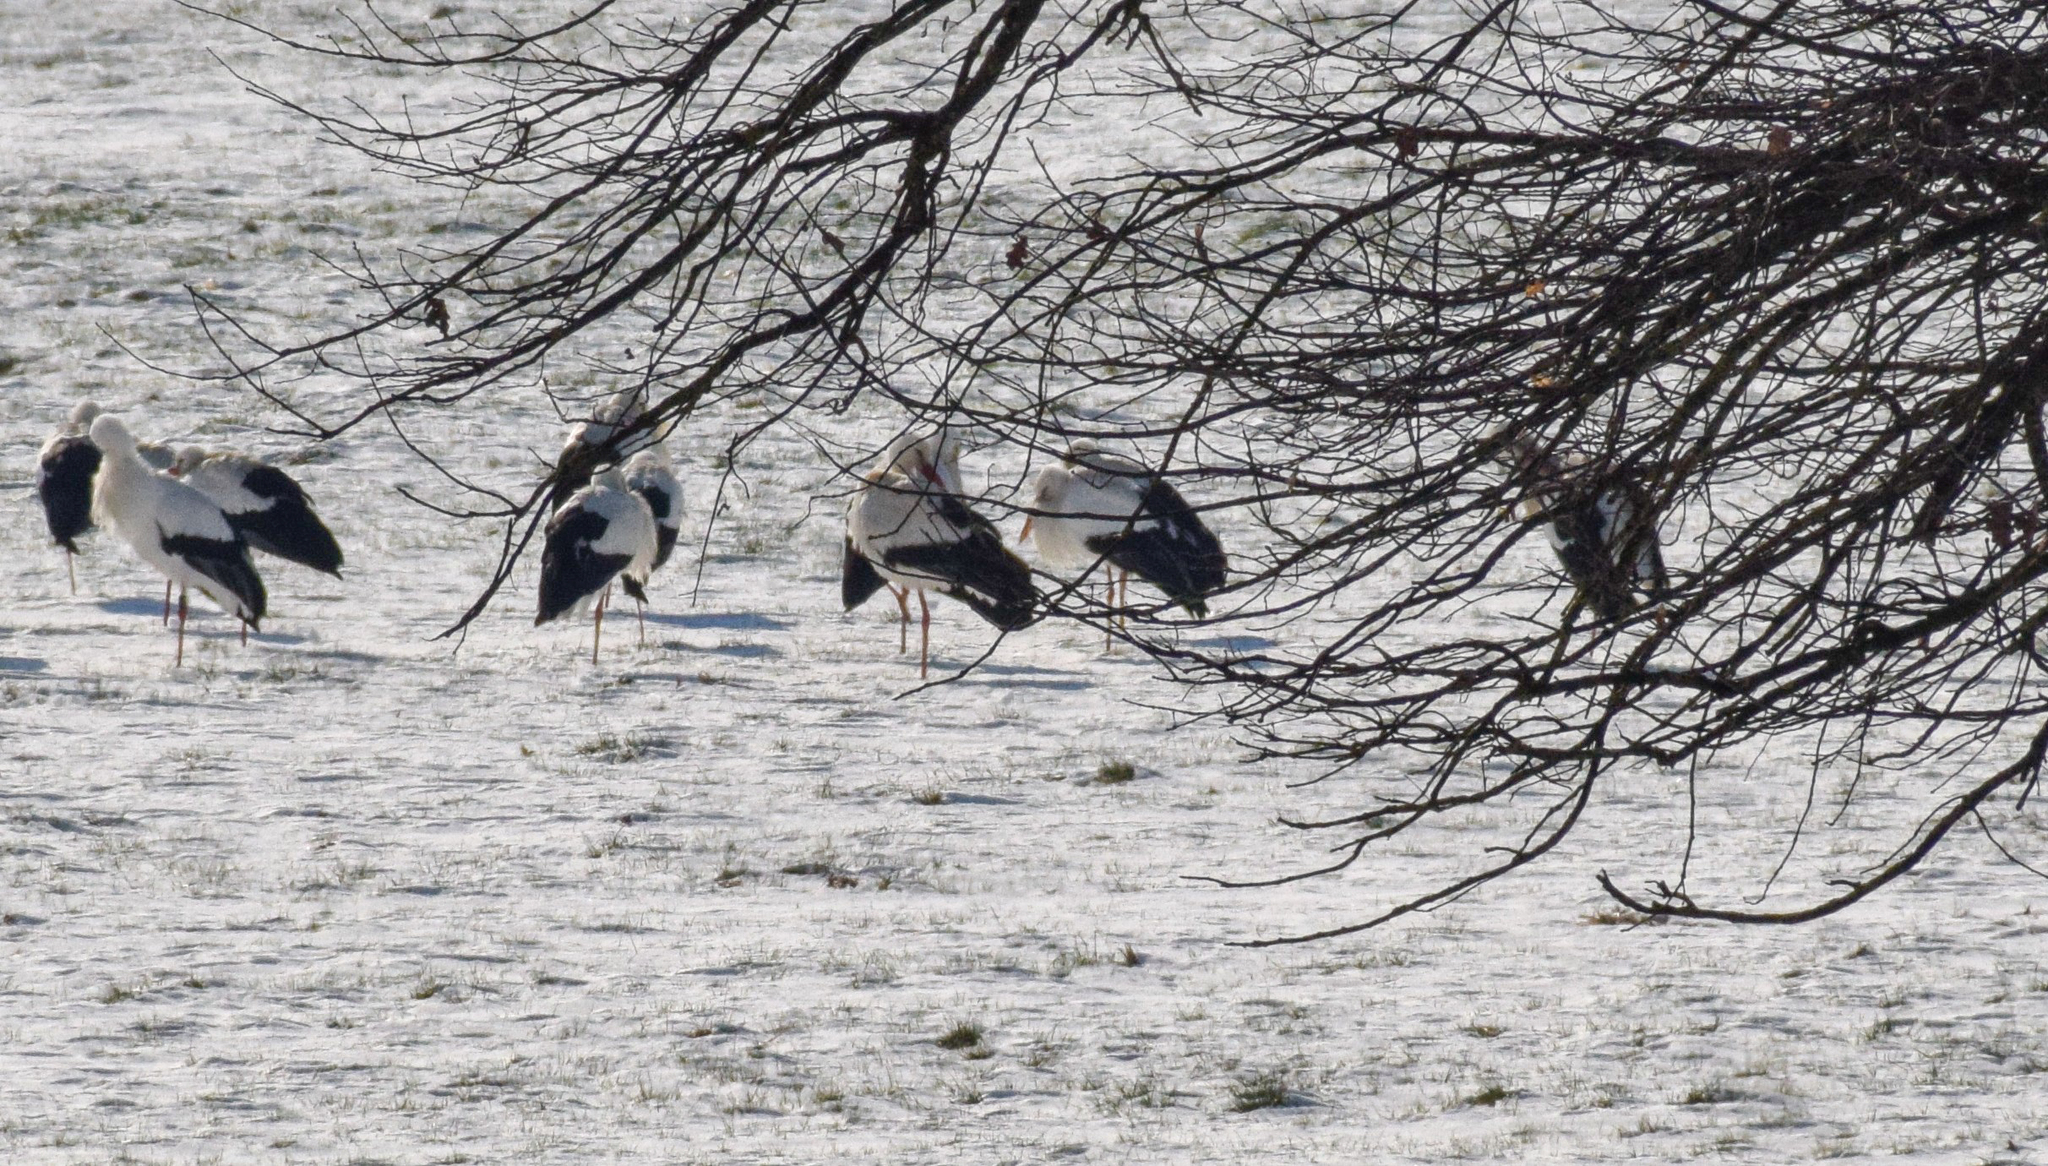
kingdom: Animalia
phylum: Chordata
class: Aves
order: Ciconiiformes
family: Ciconiidae
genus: Ciconia
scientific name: Ciconia ciconia
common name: White stork
